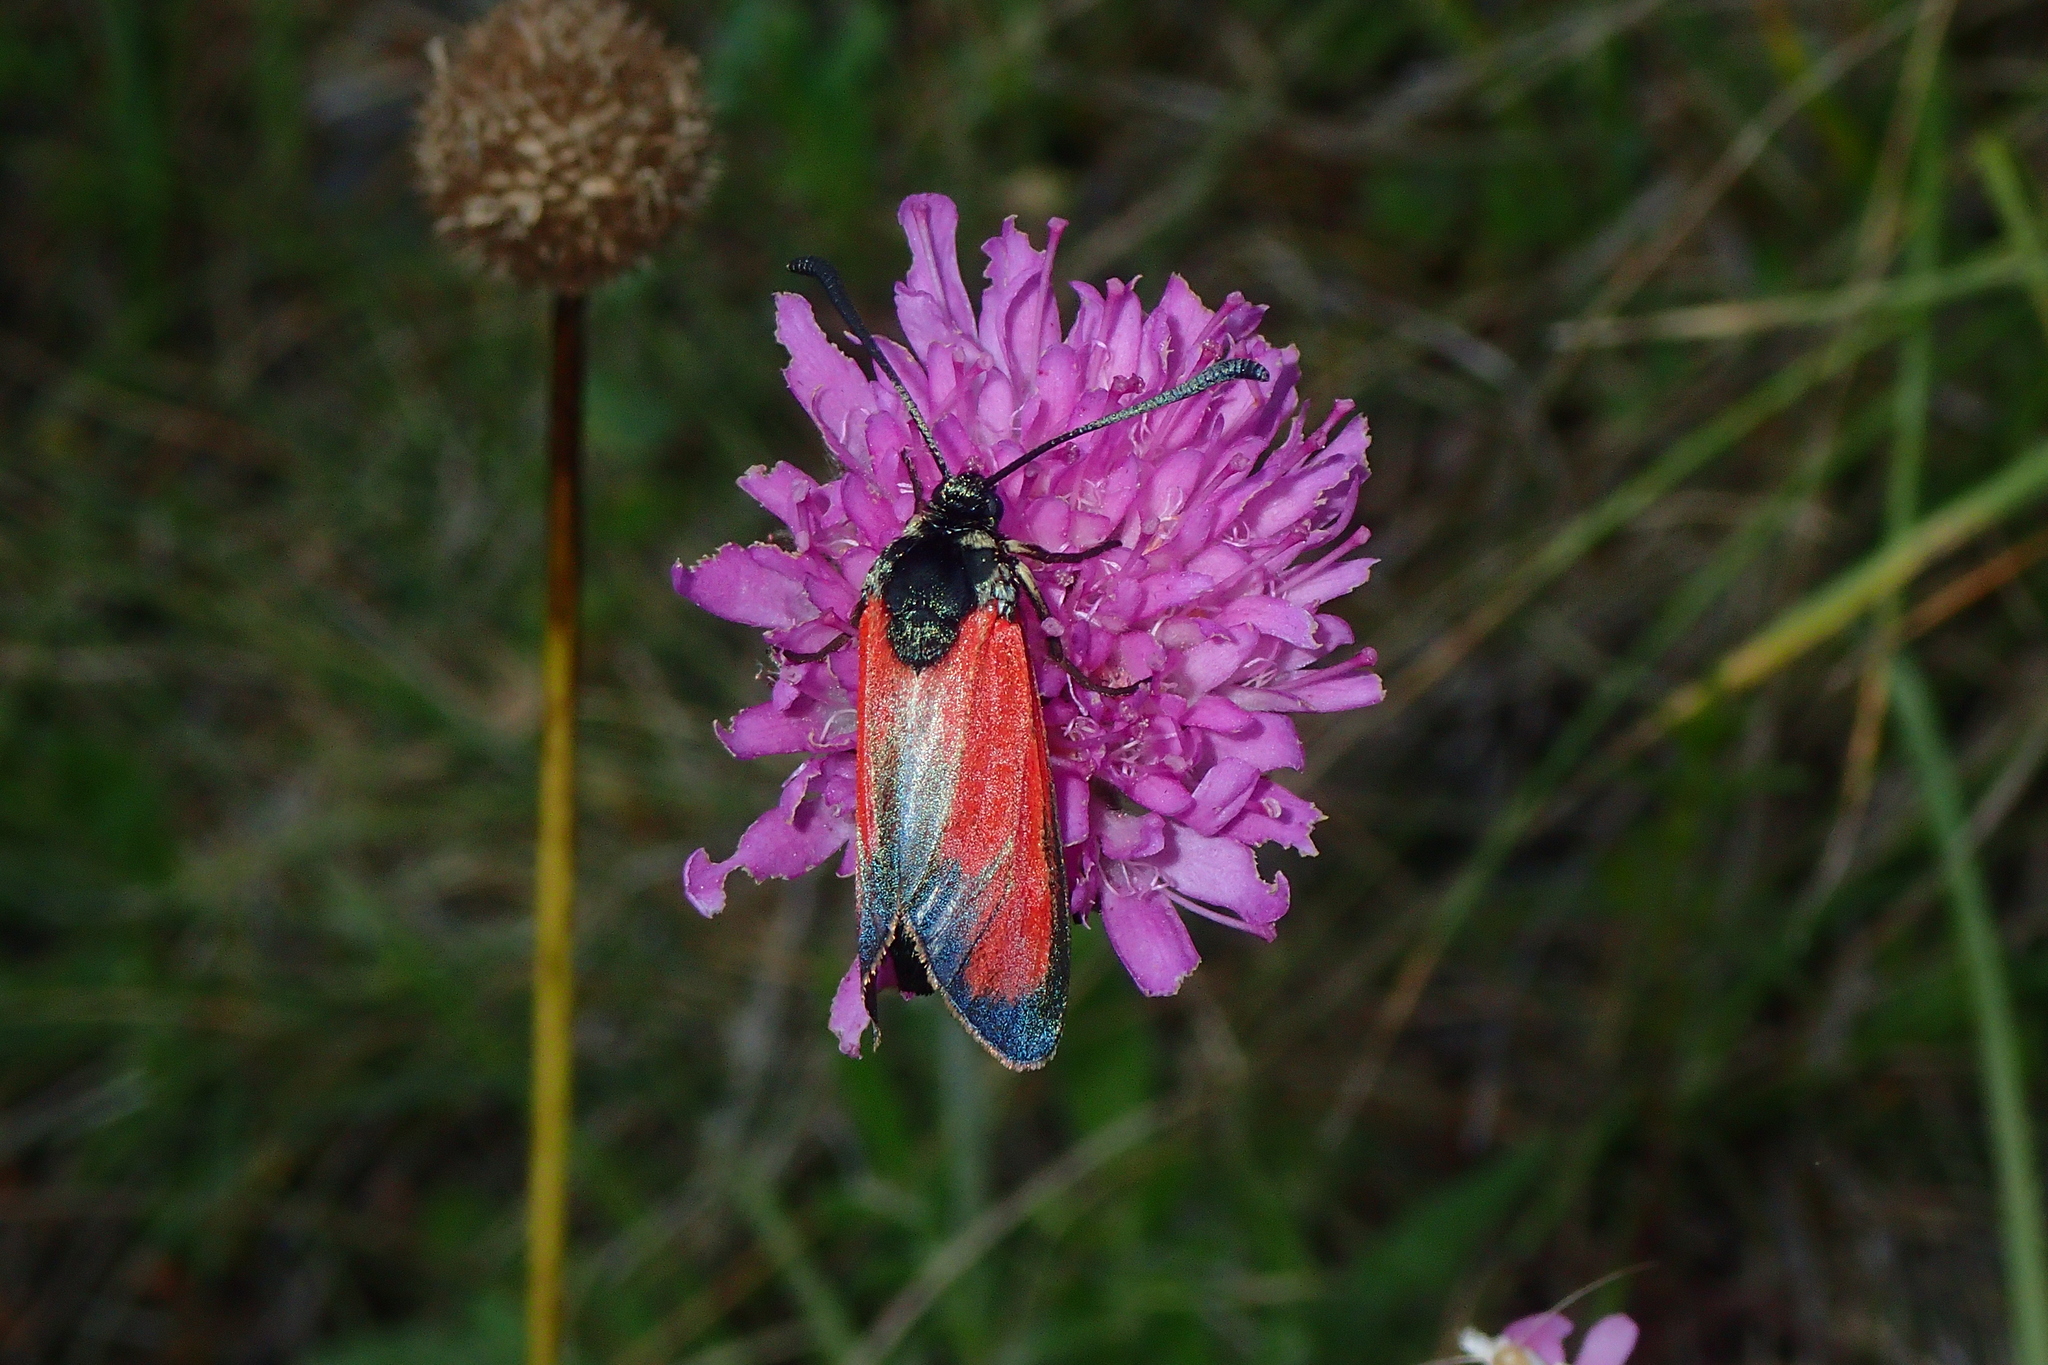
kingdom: Animalia
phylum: Arthropoda
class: Insecta
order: Lepidoptera
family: Zygaenidae
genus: Zygaena
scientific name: Zygaena erythrus
